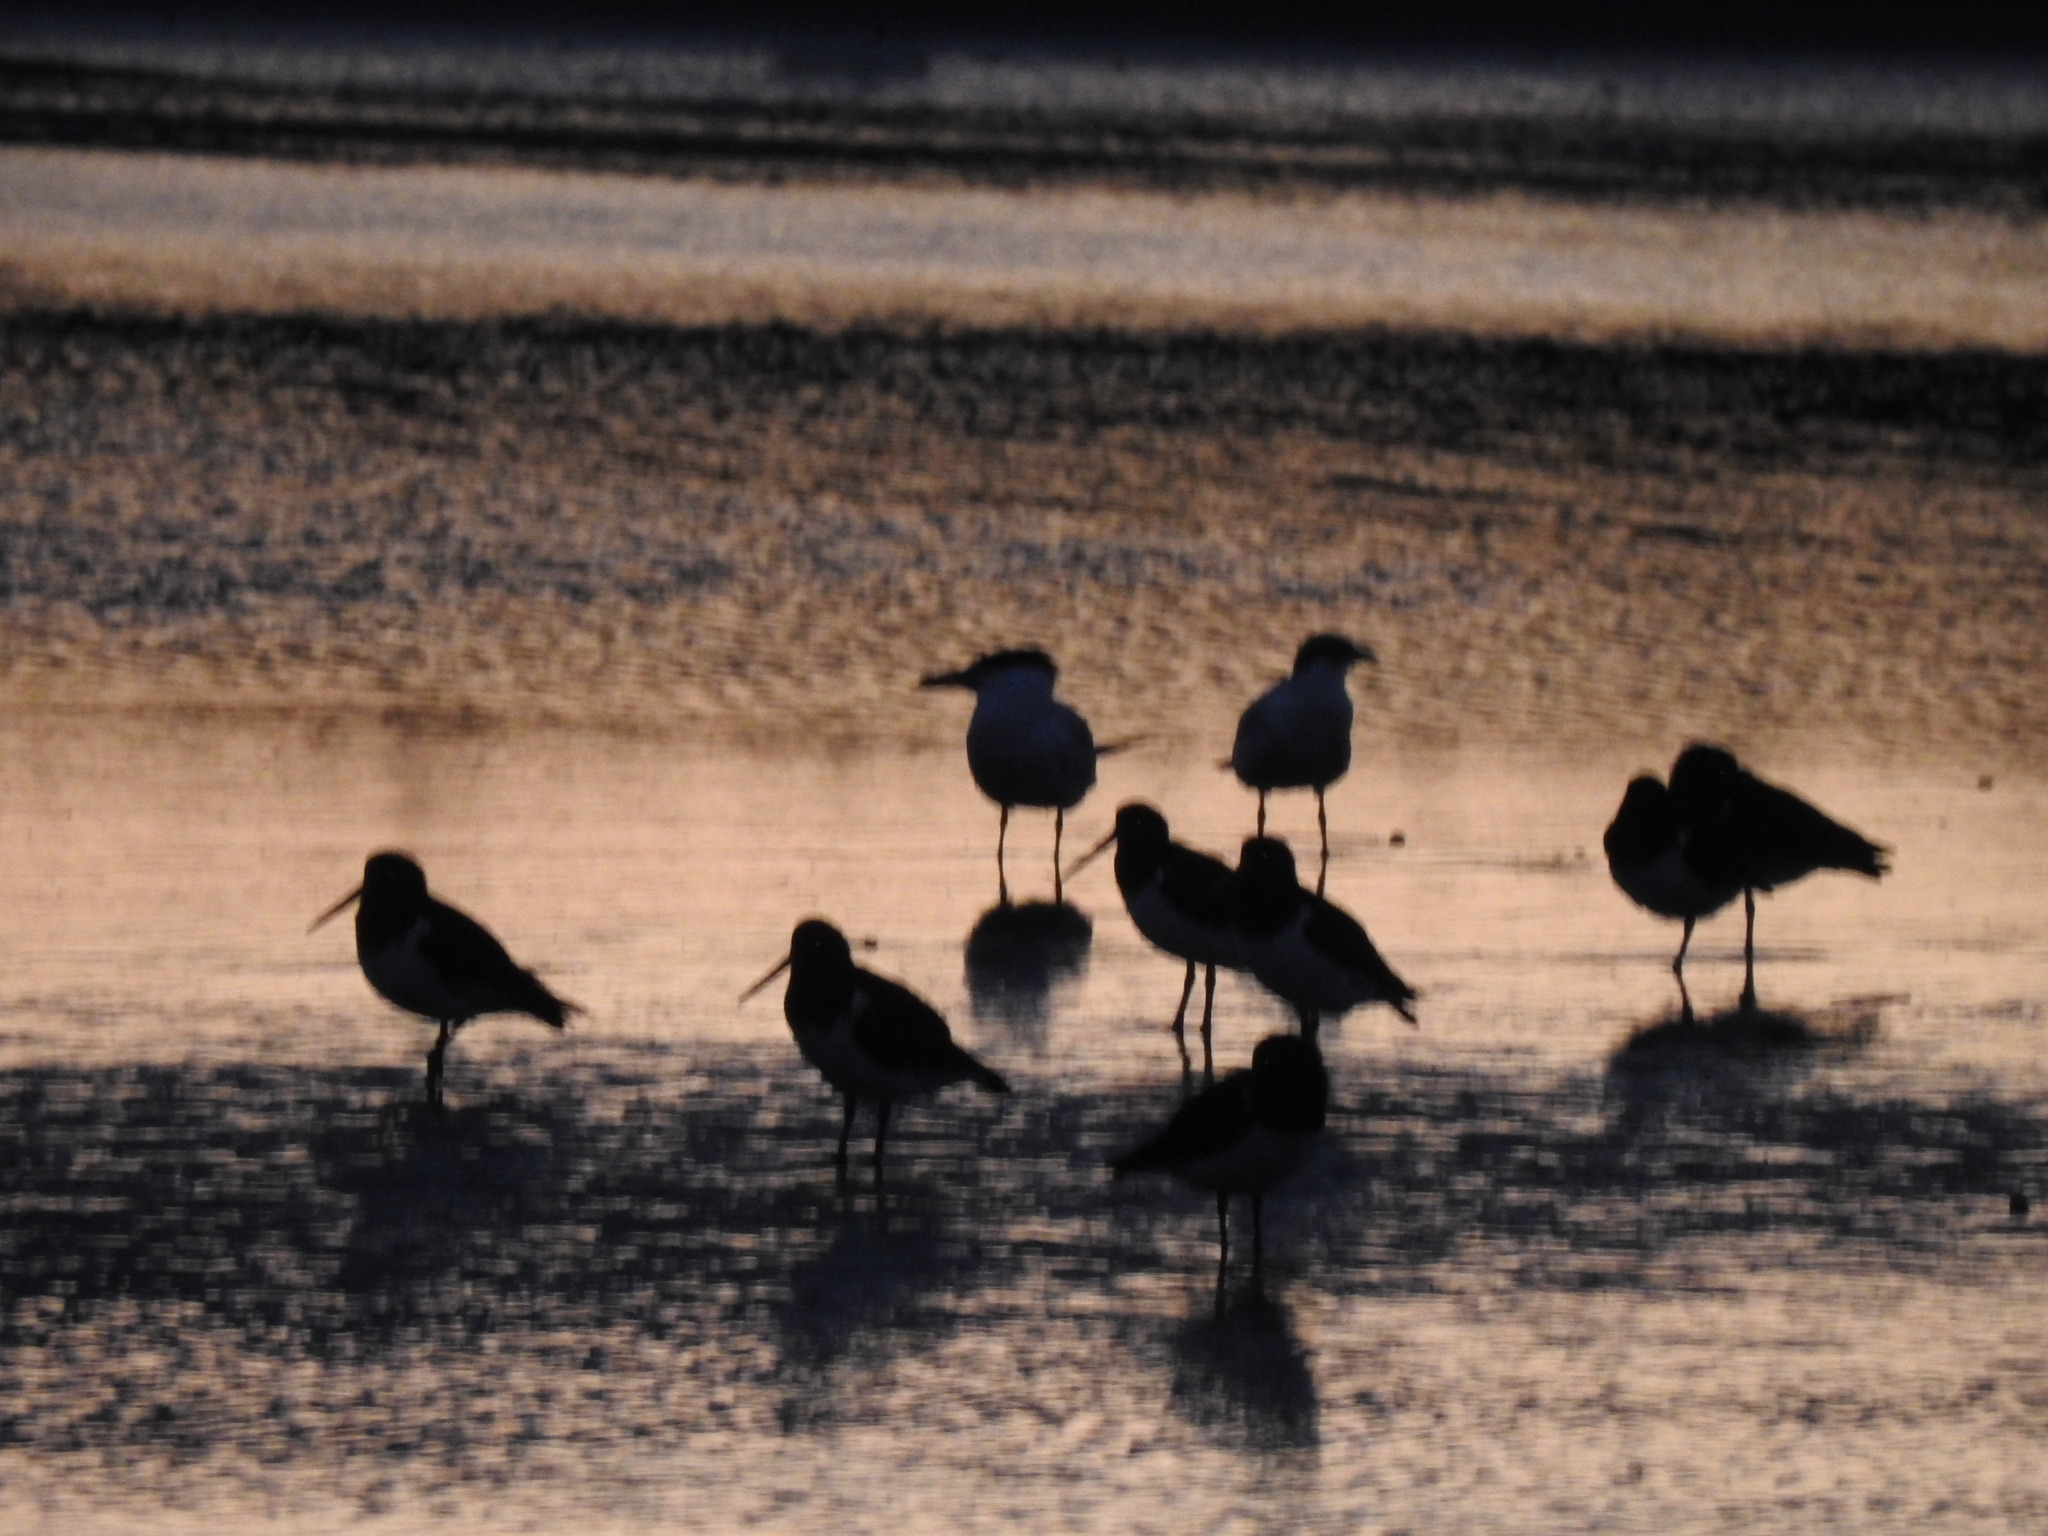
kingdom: Animalia
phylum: Chordata
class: Aves
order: Charadriiformes
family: Laridae
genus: Hydroprogne
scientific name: Hydroprogne caspia
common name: Caspian tern
